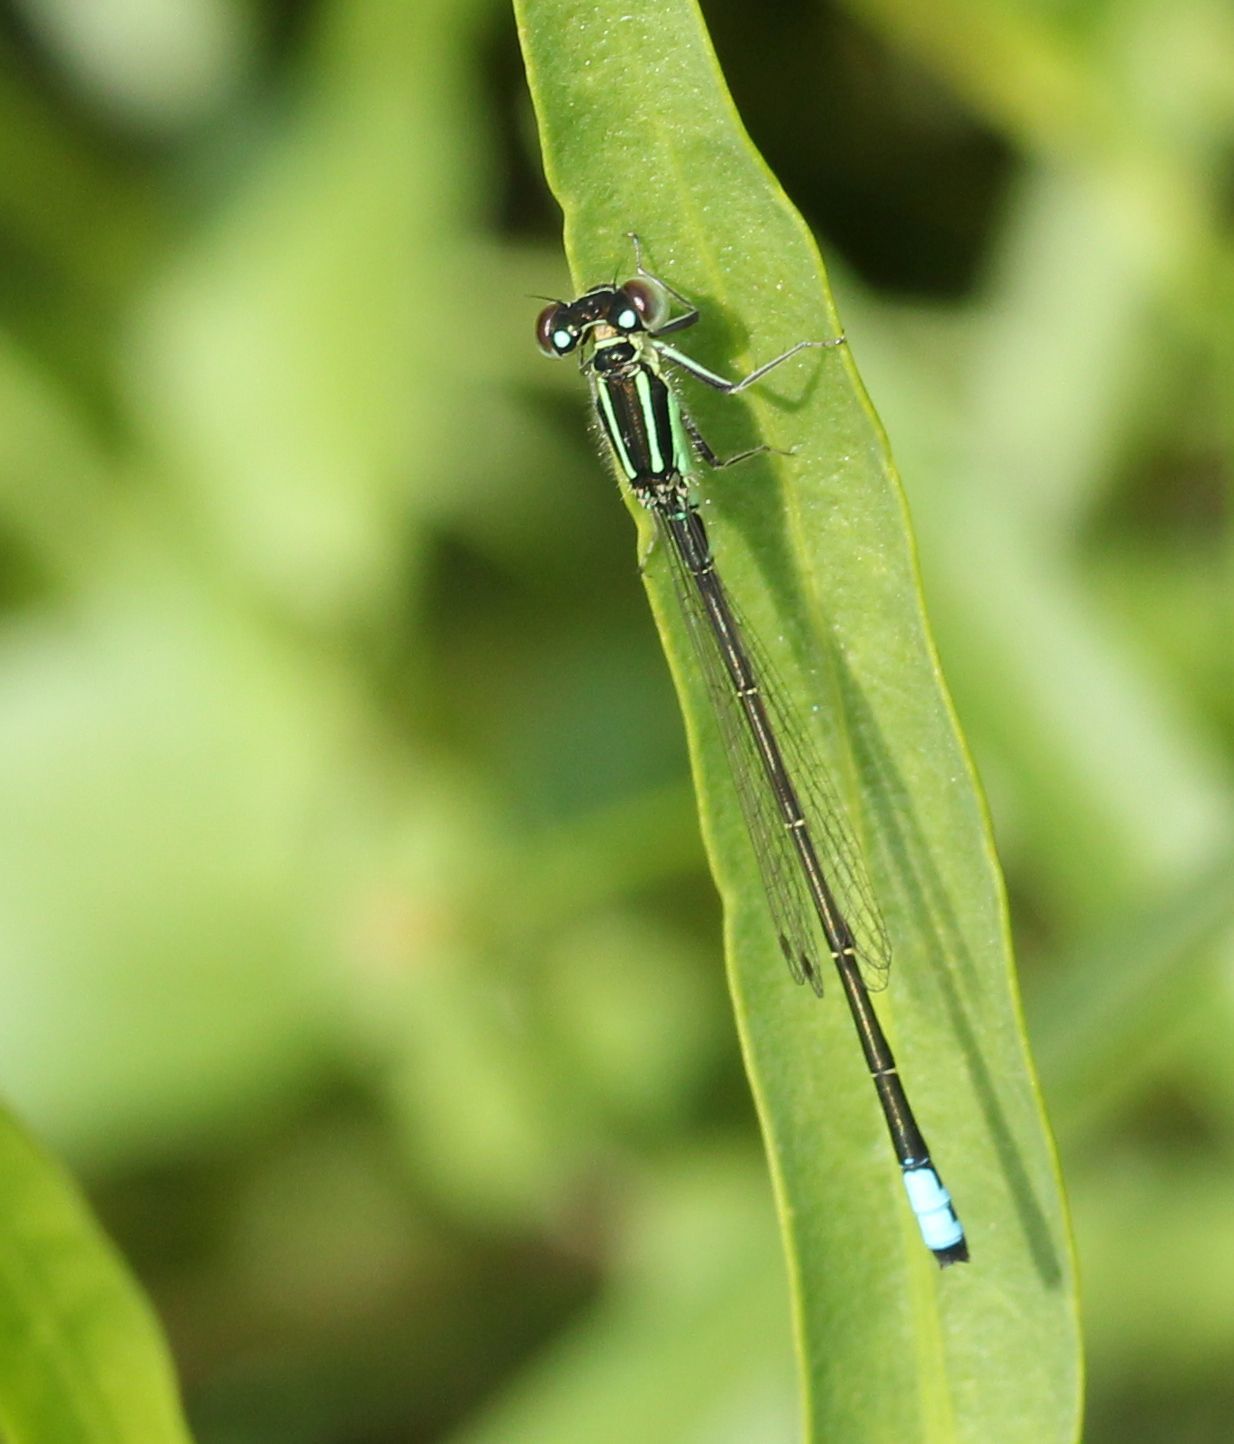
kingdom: Animalia
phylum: Arthropoda
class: Insecta
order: Odonata
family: Coenagrionidae
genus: Ischnura
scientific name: Ischnura verticalis
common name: Eastern forktail
